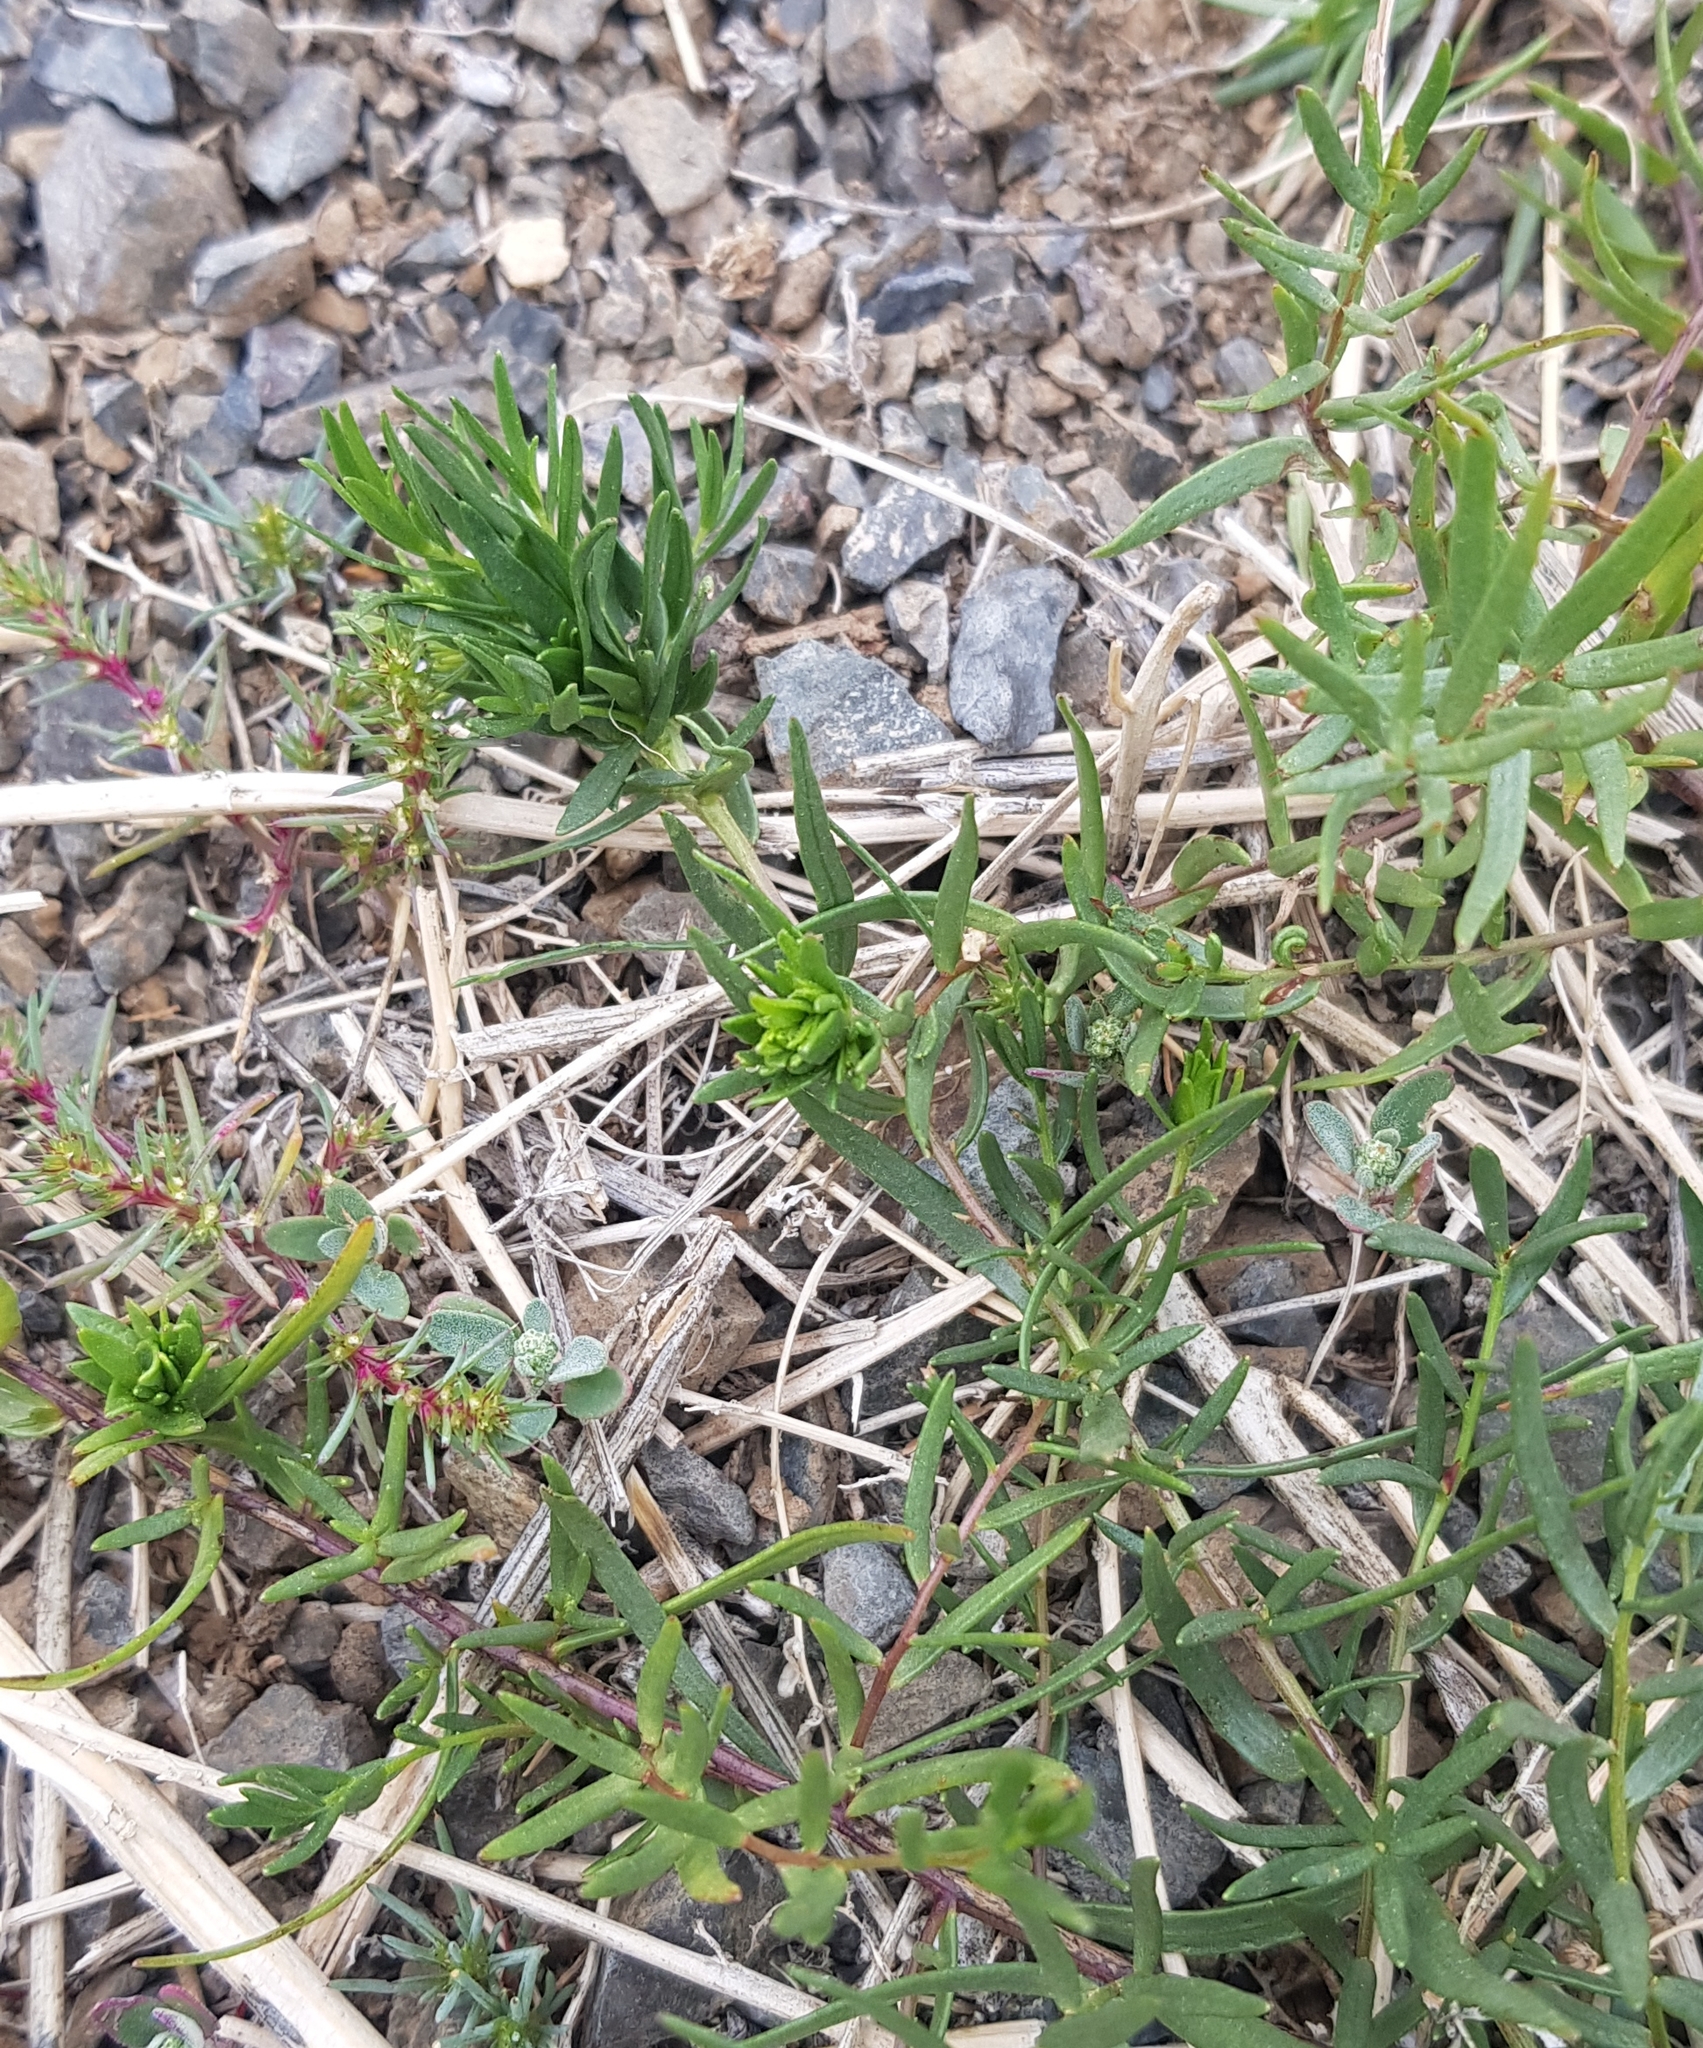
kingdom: Plantae
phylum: Tracheophyta
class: Magnoliopsida
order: Gentianales
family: Apocynaceae
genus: Cynanchum
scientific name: Cynanchum thesioides
